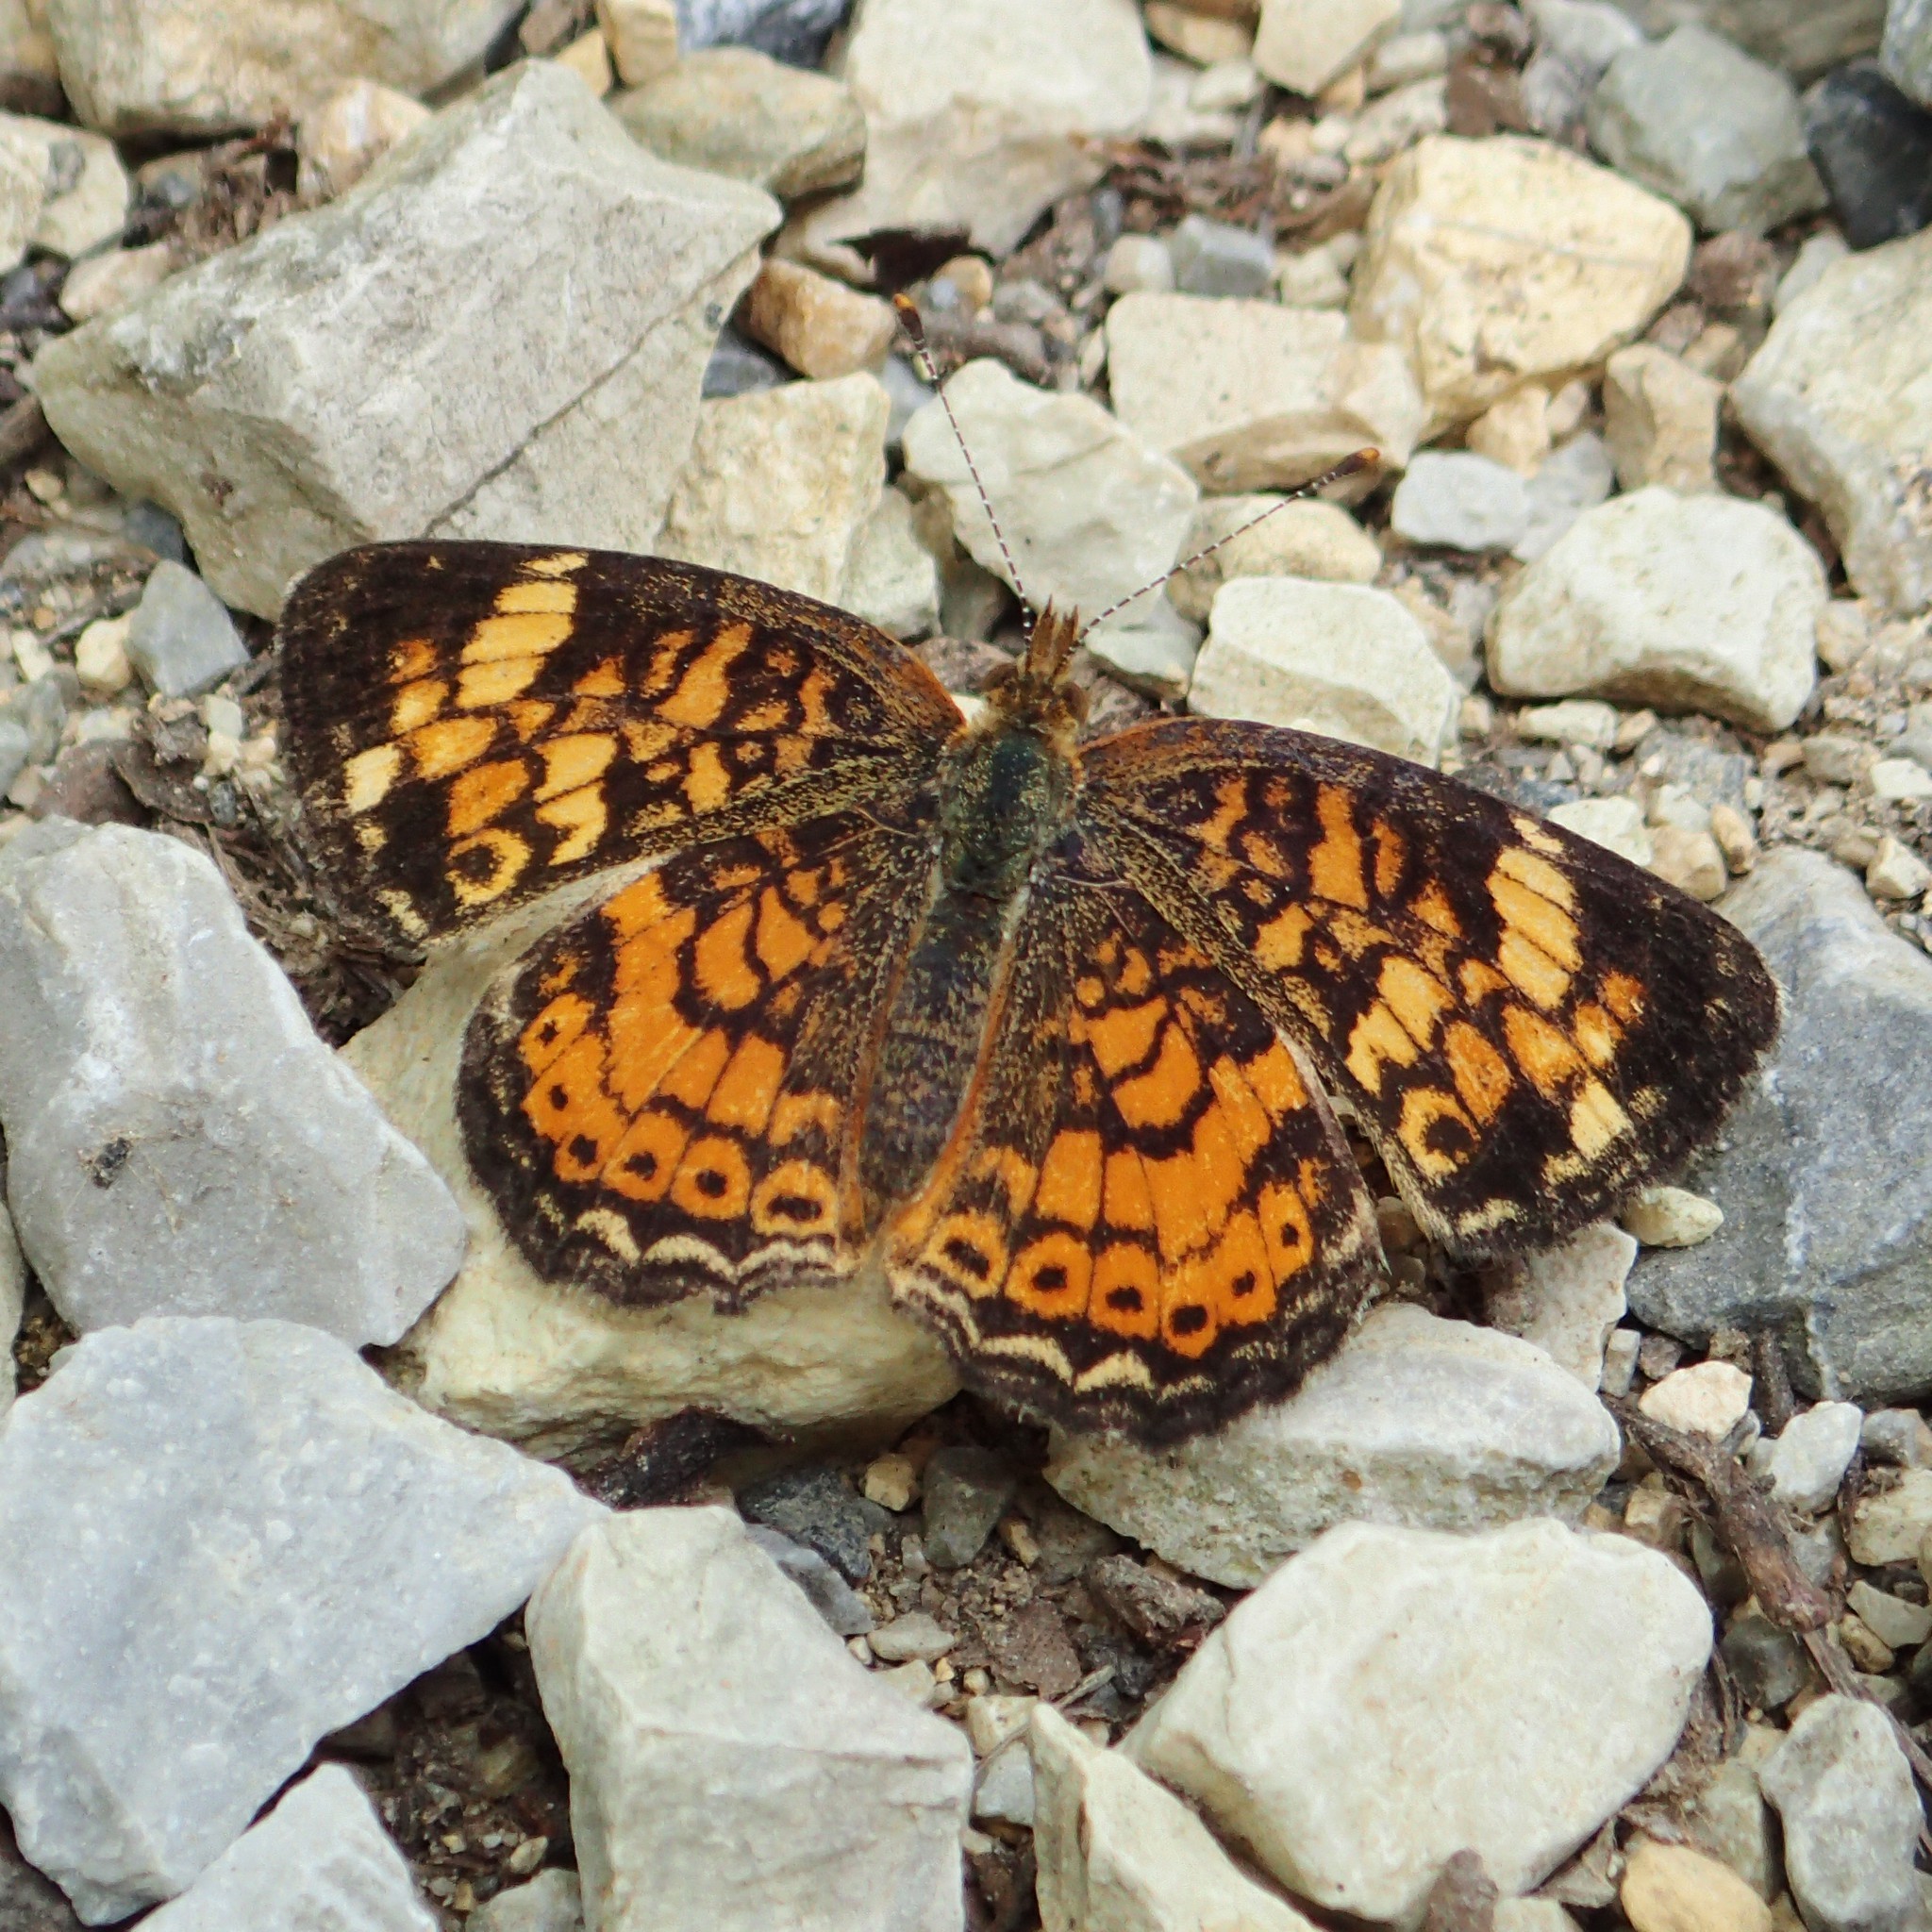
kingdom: Animalia
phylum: Arthropoda
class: Insecta
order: Lepidoptera
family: Nymphalidae
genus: Phyciodes
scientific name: Phyciodes tharos
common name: Pearl crescent
